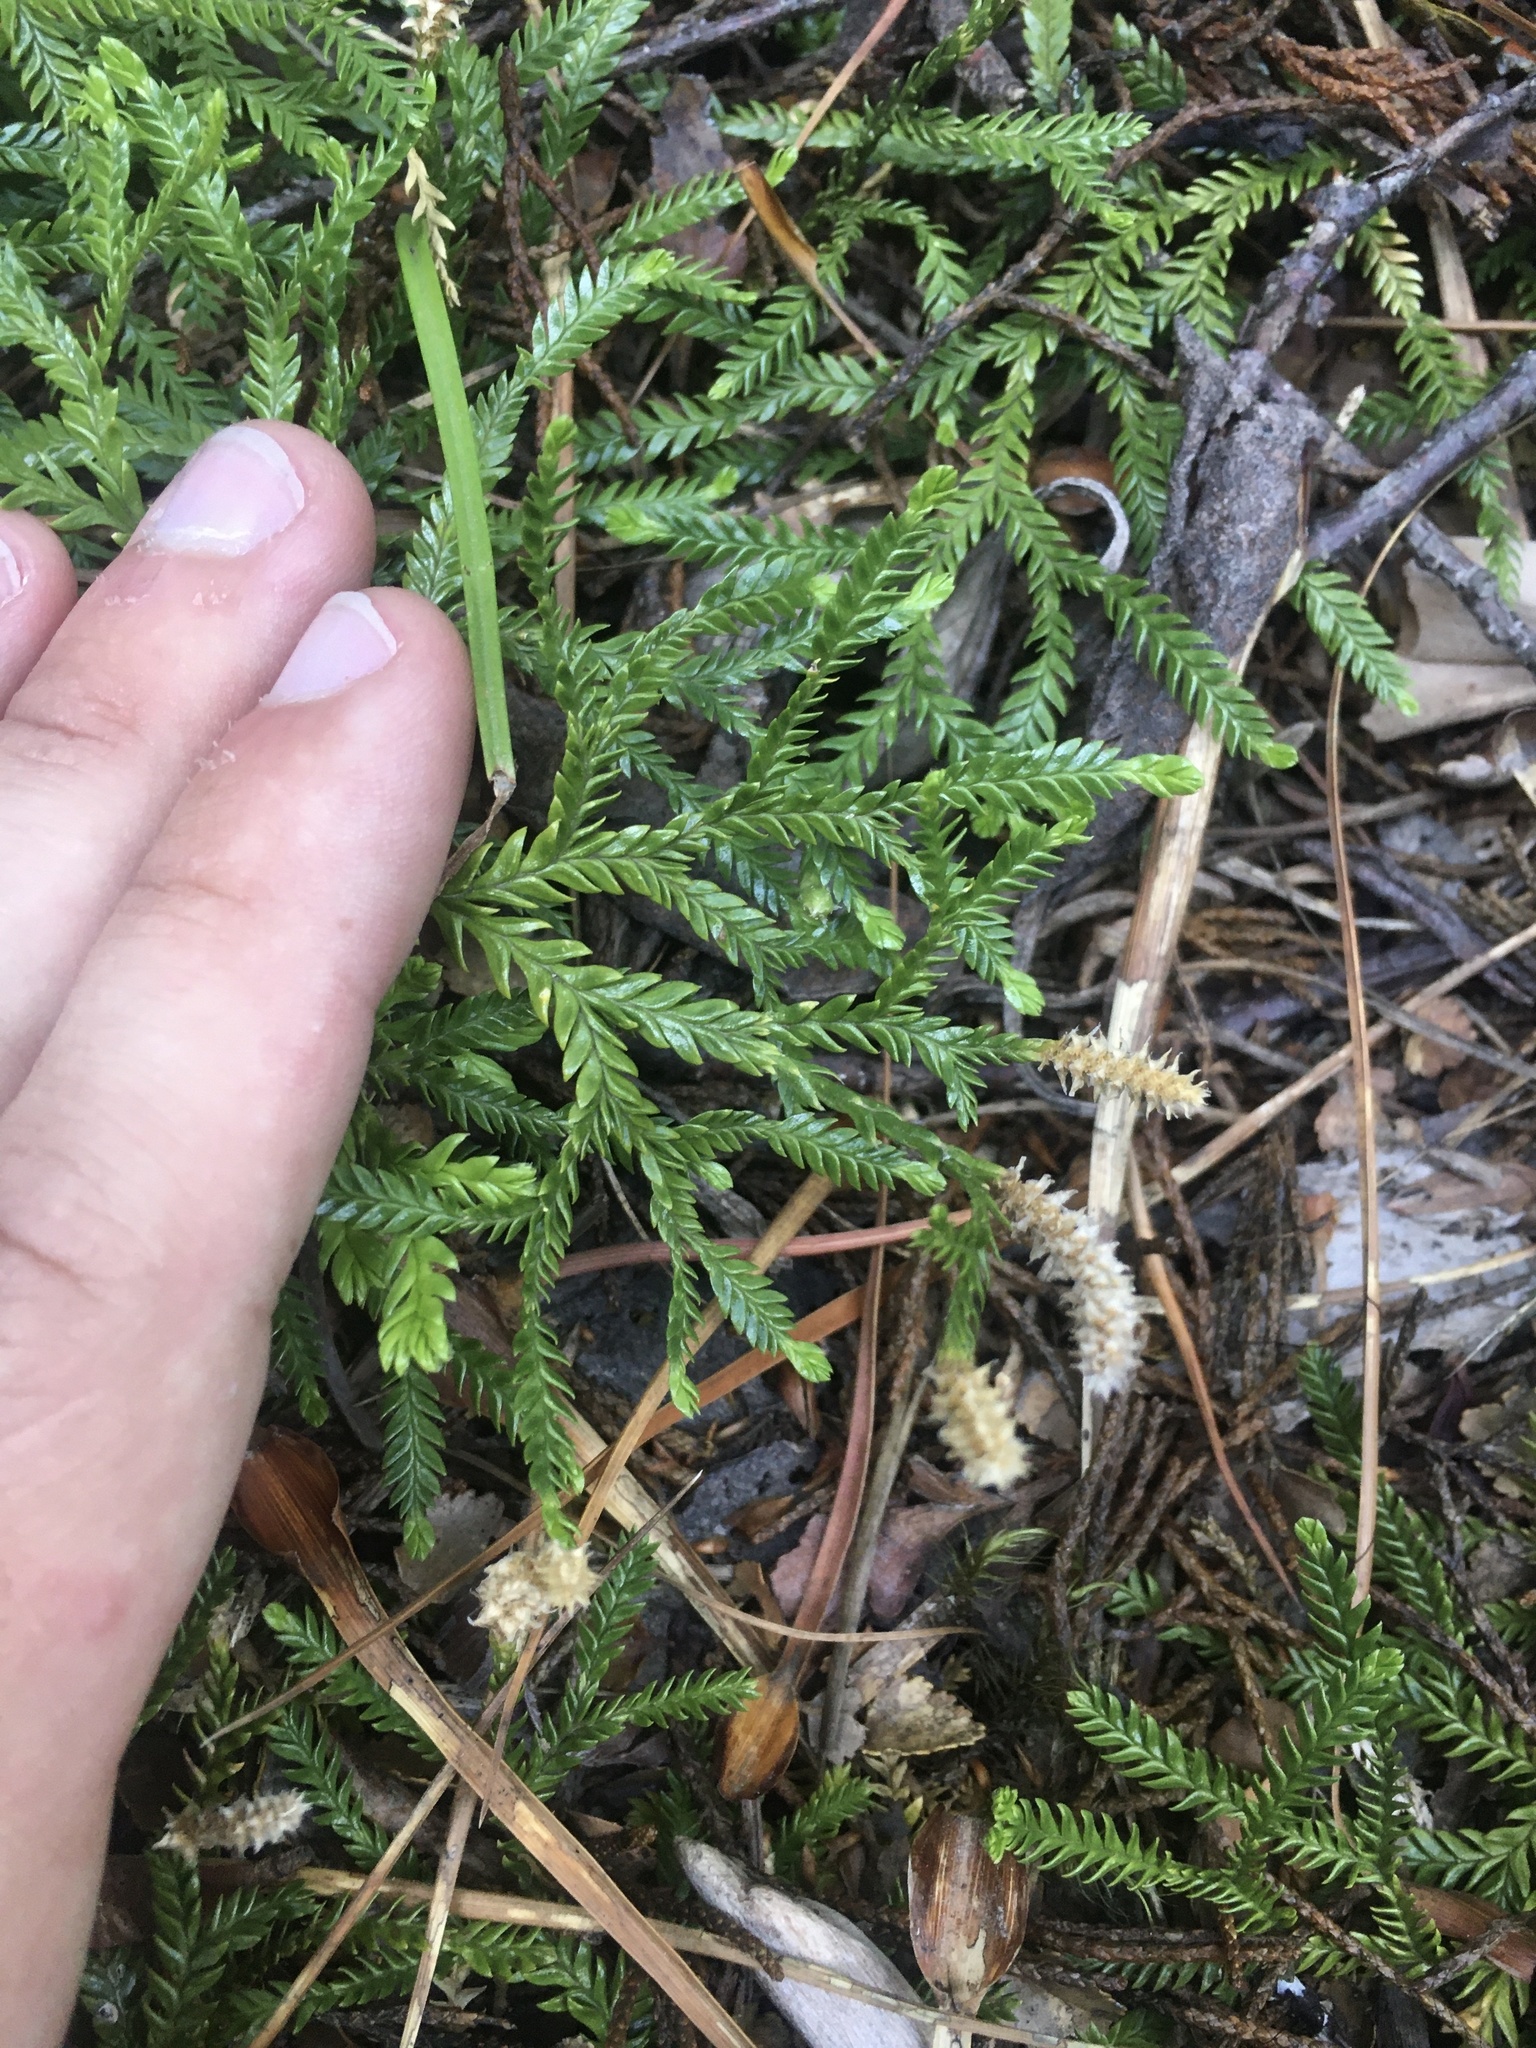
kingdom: Plantae
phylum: Tracheophyta
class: Lycopodiopsida
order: Lycopodiales
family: Lycopodiaceae
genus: Diphasium
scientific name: Diphasium scariosum
